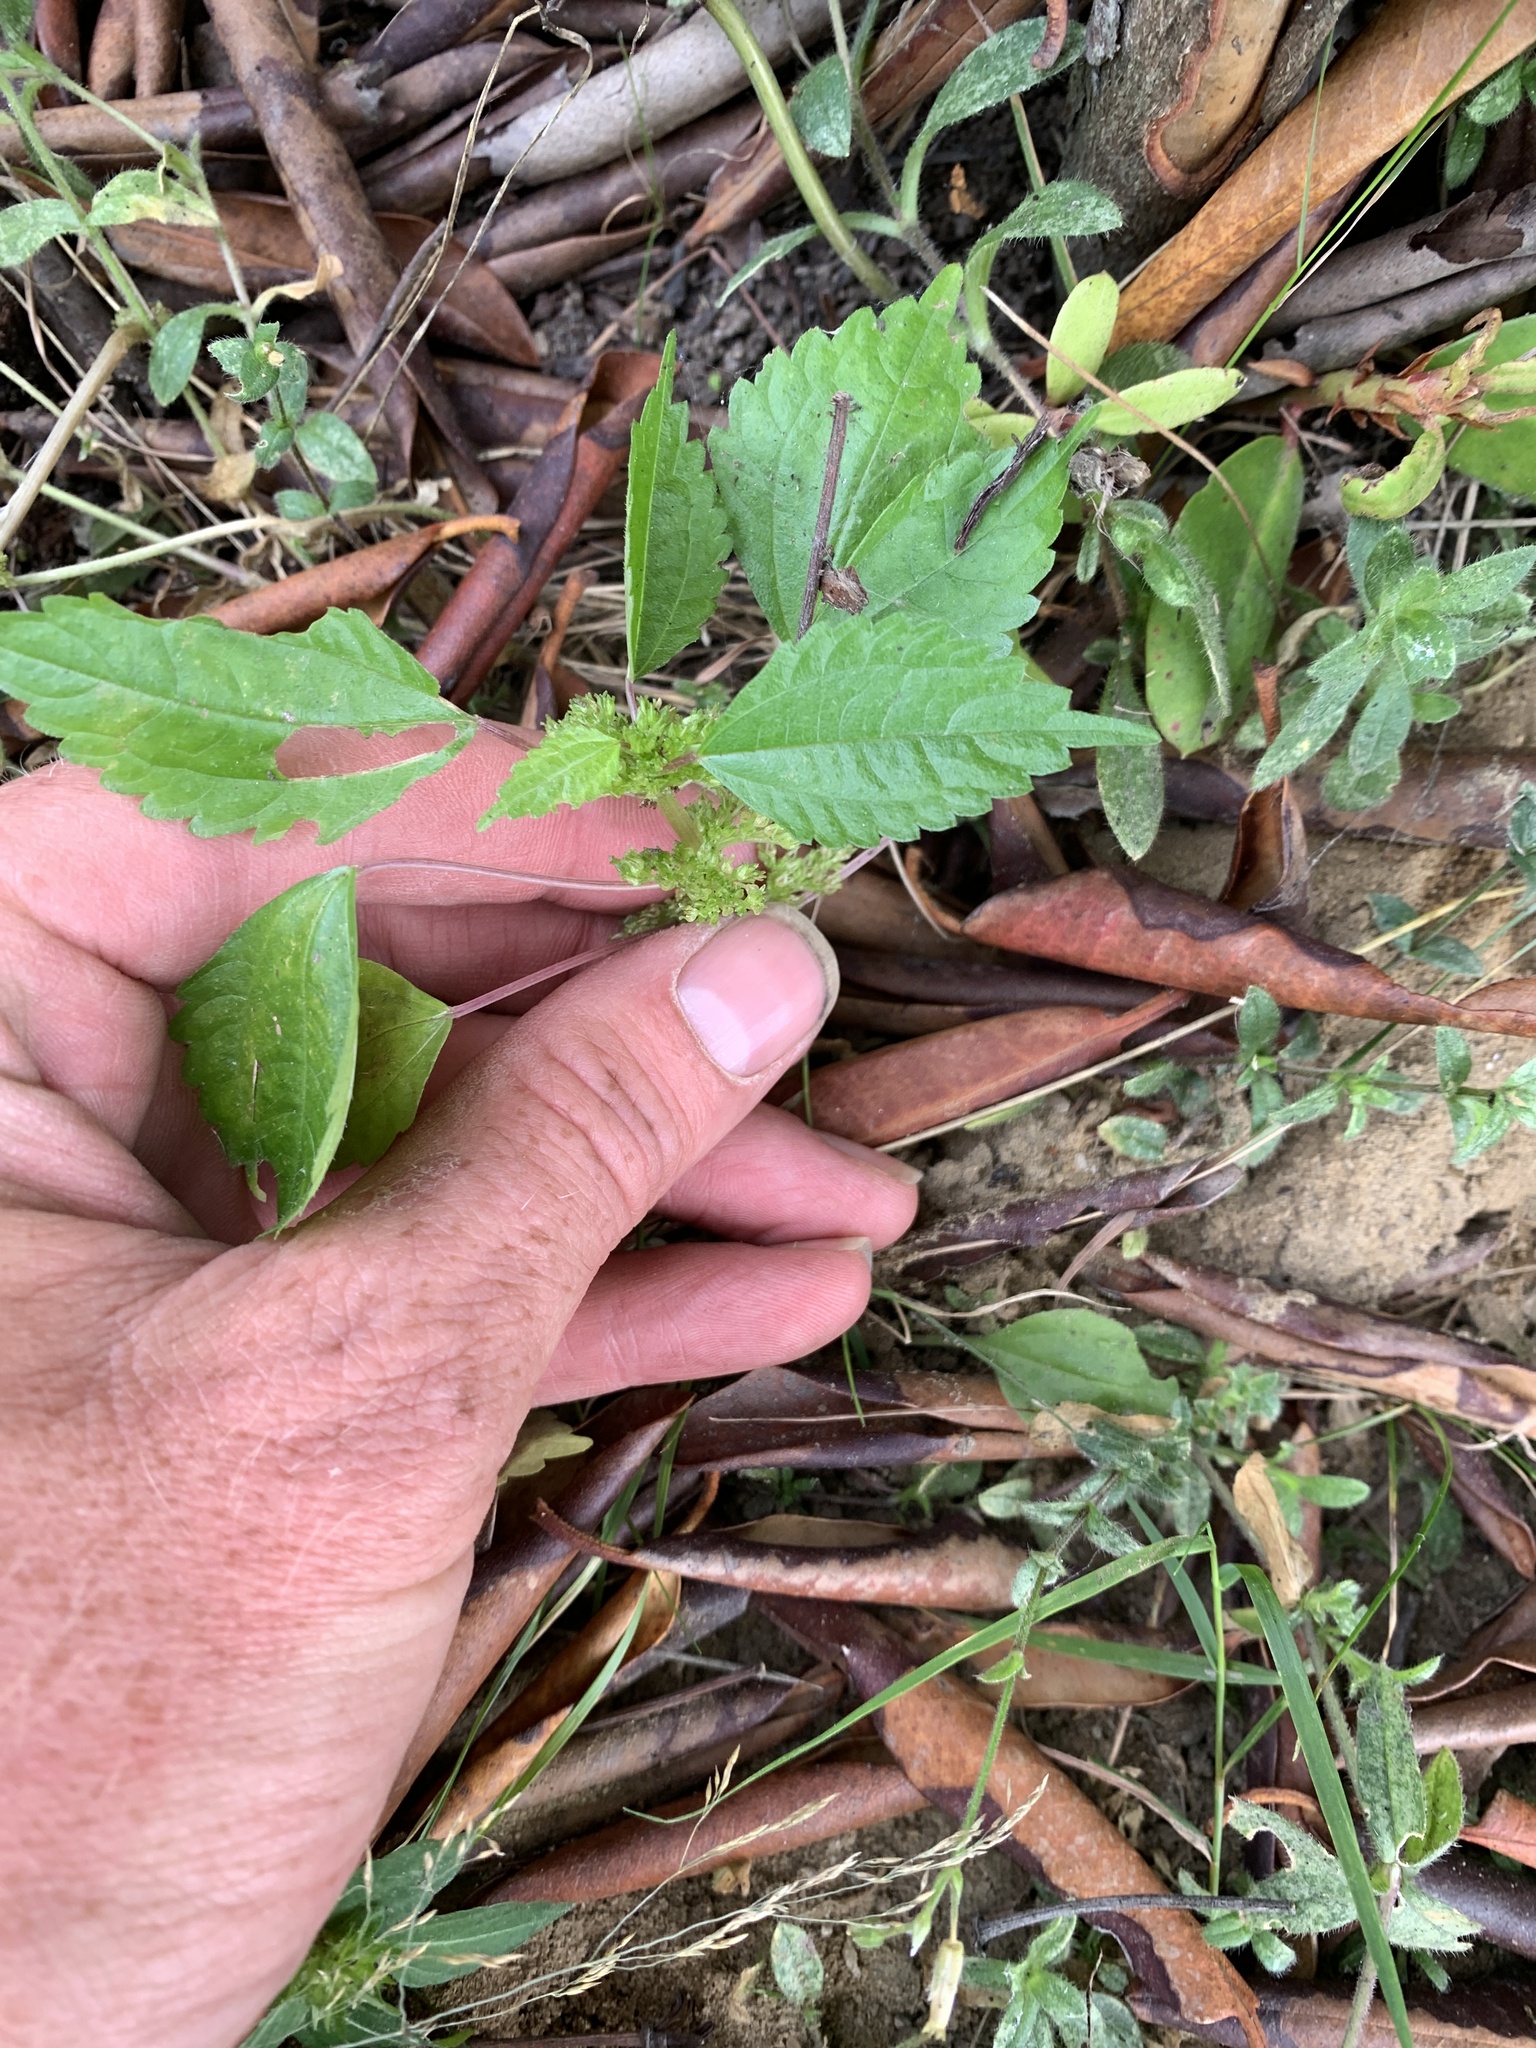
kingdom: Plantae
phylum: Tracheophyta
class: Magnoliopsida
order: Rosales
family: Urticaceae
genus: Pilea
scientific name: Pilea pumila
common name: Clearweed
